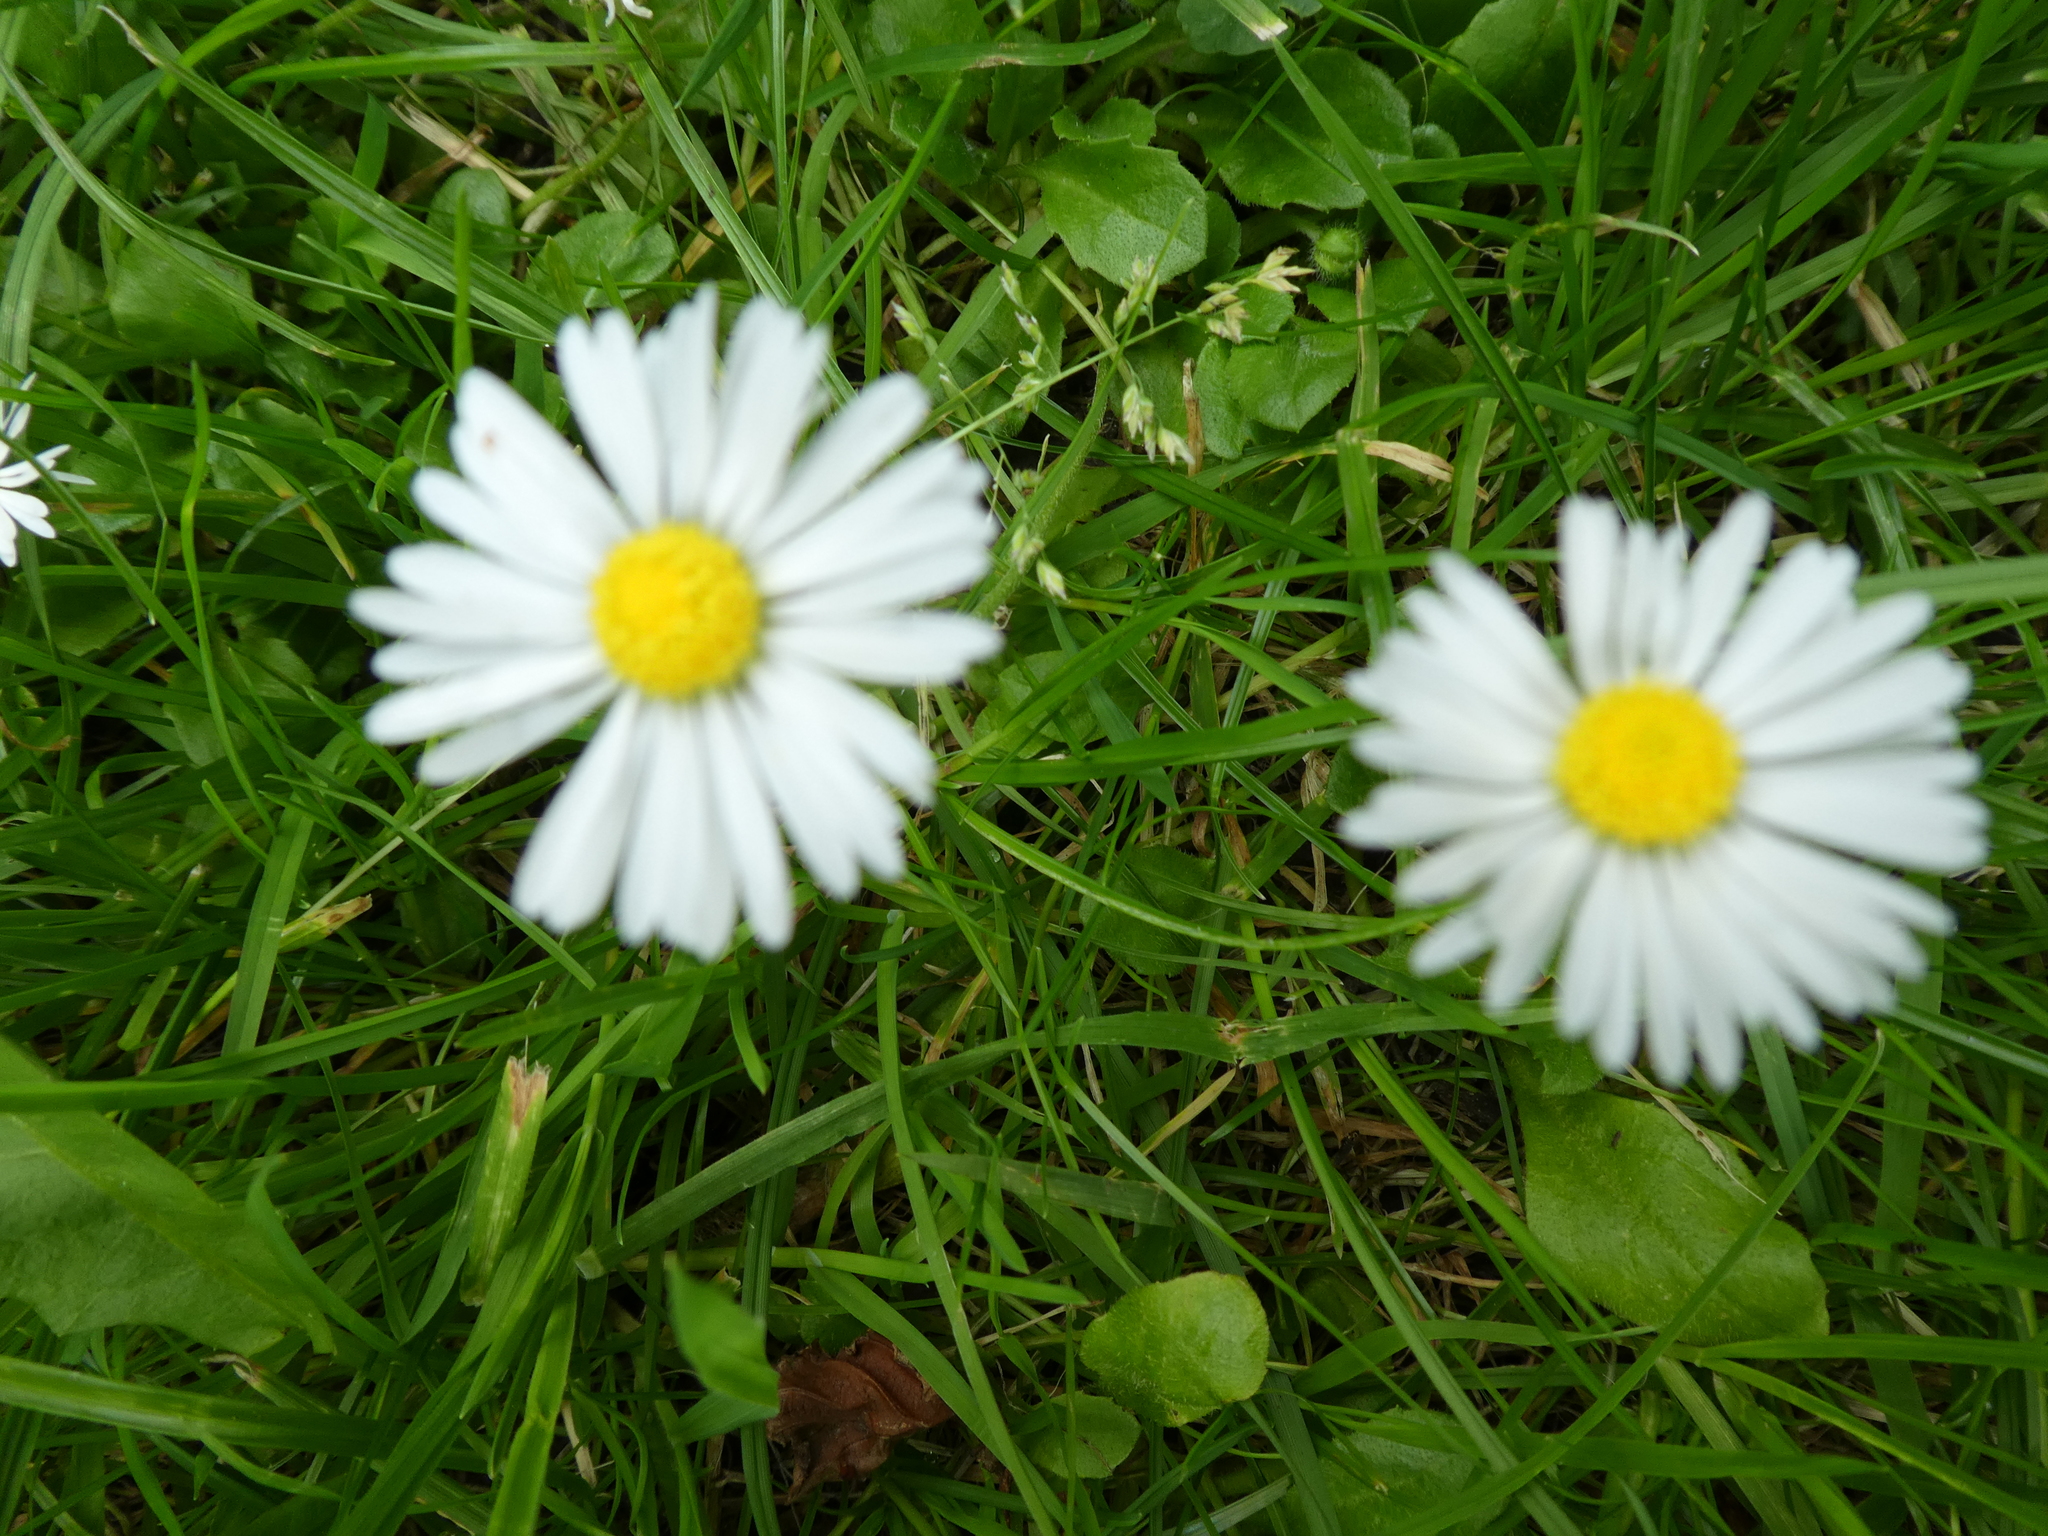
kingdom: Plantae
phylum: Tracheophyta
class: Magnoliopsida
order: Asterales
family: Asteraceae
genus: Bellis
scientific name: Bellis perennis
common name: Lawndaisy
